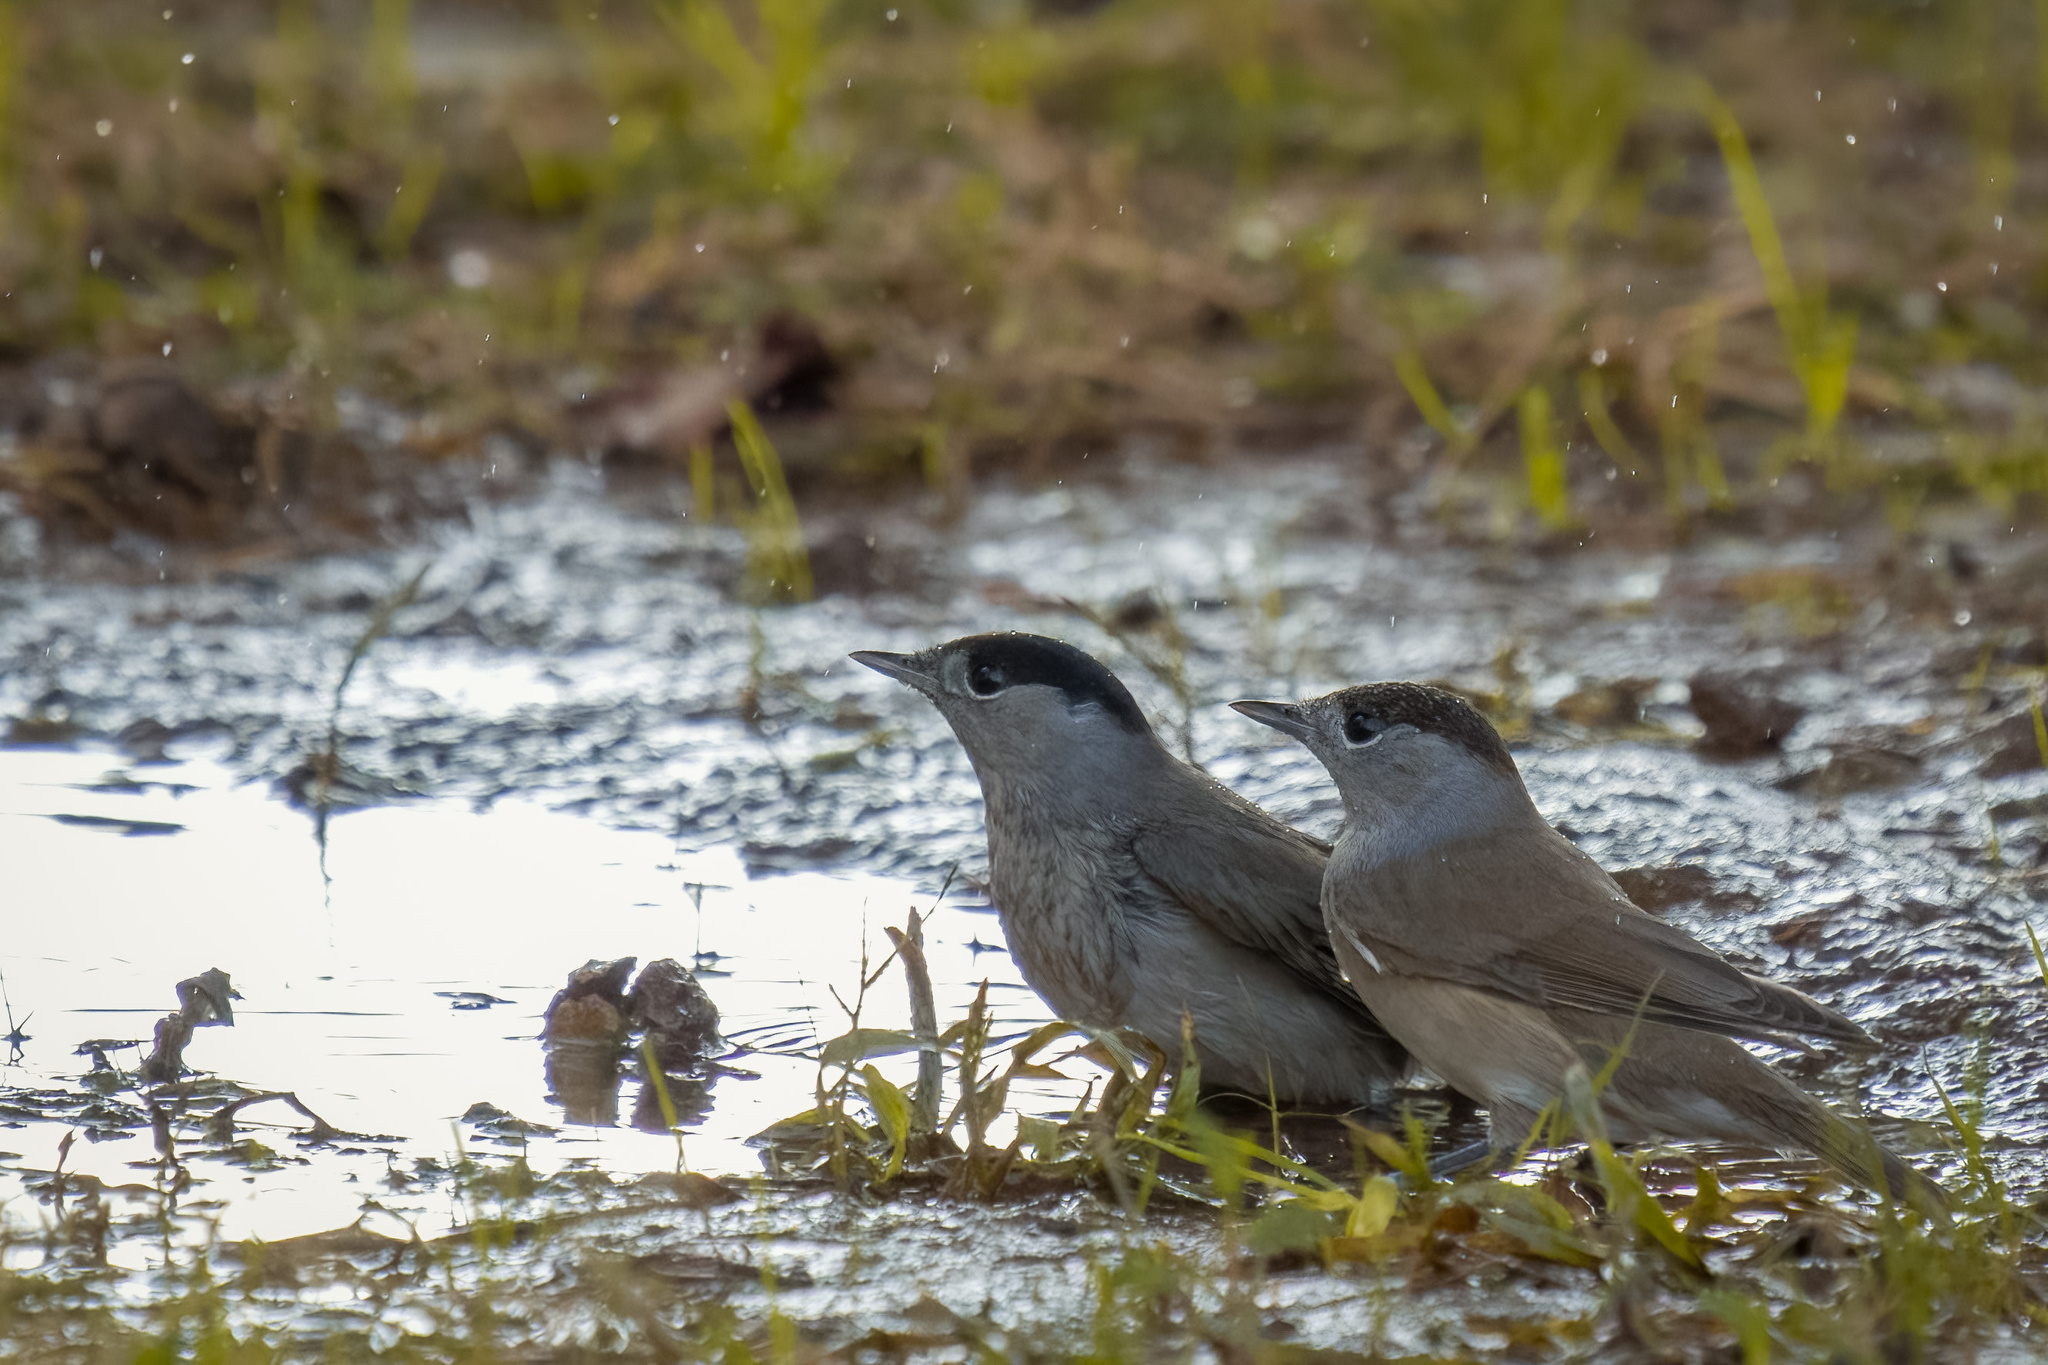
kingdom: Animalia
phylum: Chordata
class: Aves
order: Passeriformes
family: Sylviidae
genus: Sylvia
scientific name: Sylvia atricapilla
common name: Eurasian blackcap
